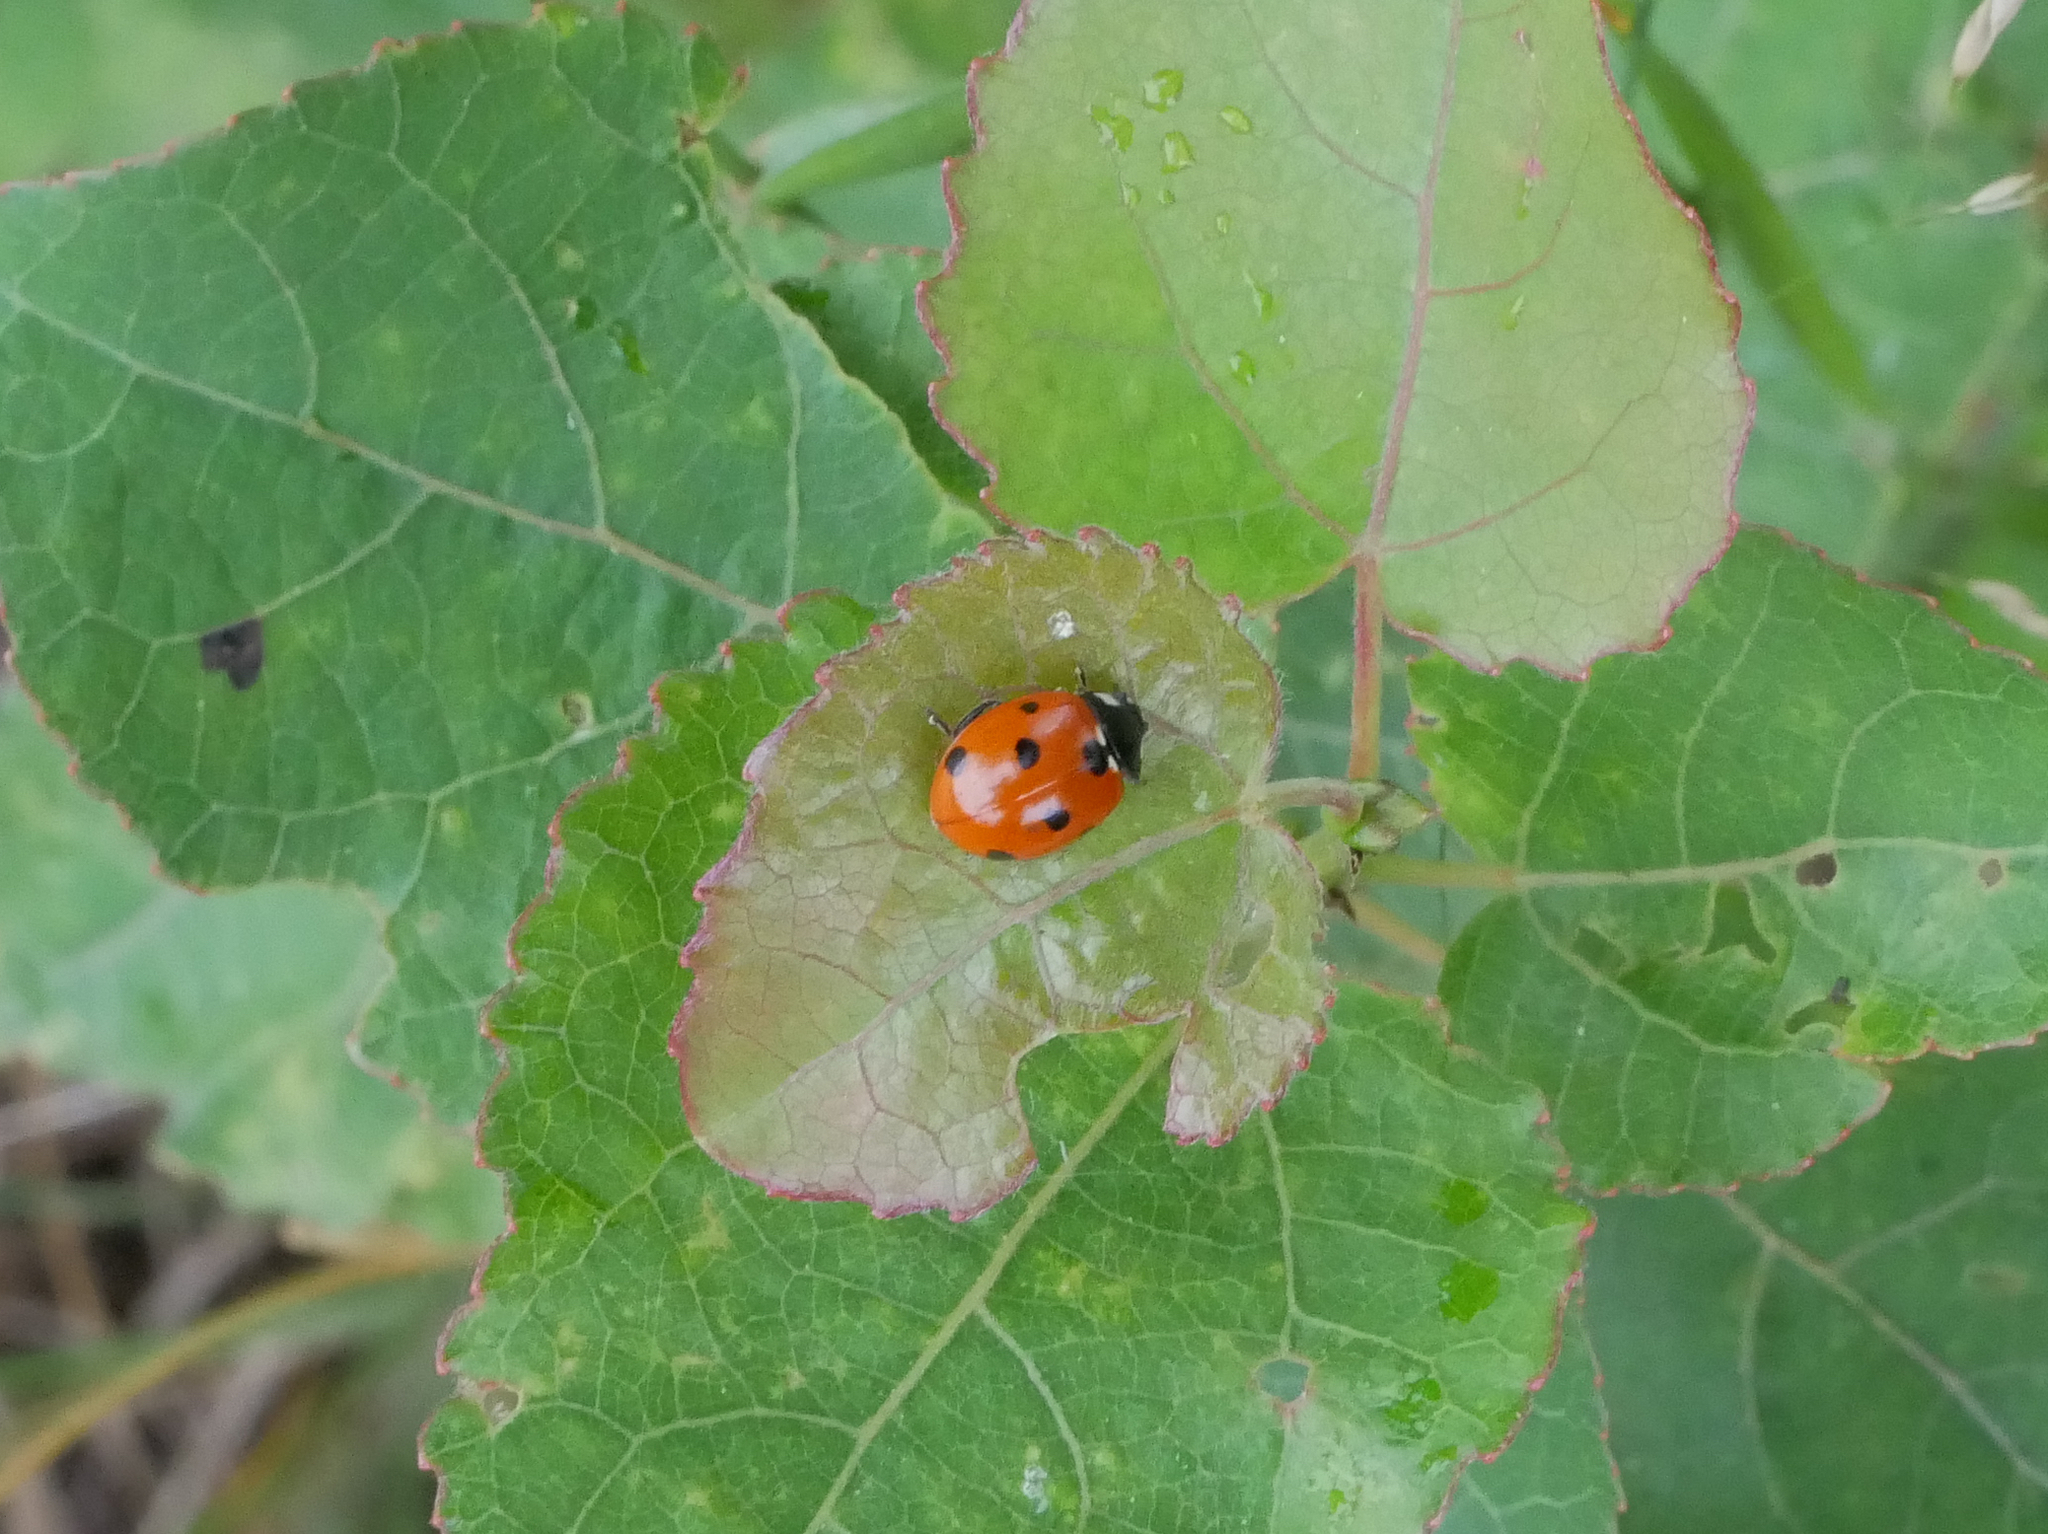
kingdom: Animalia
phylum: Arthropoda
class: Insecta
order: Coleoptera
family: Coccinellidae
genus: Coccinella
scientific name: Coccinella septempunctata
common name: Sevenspotted lady beetle
